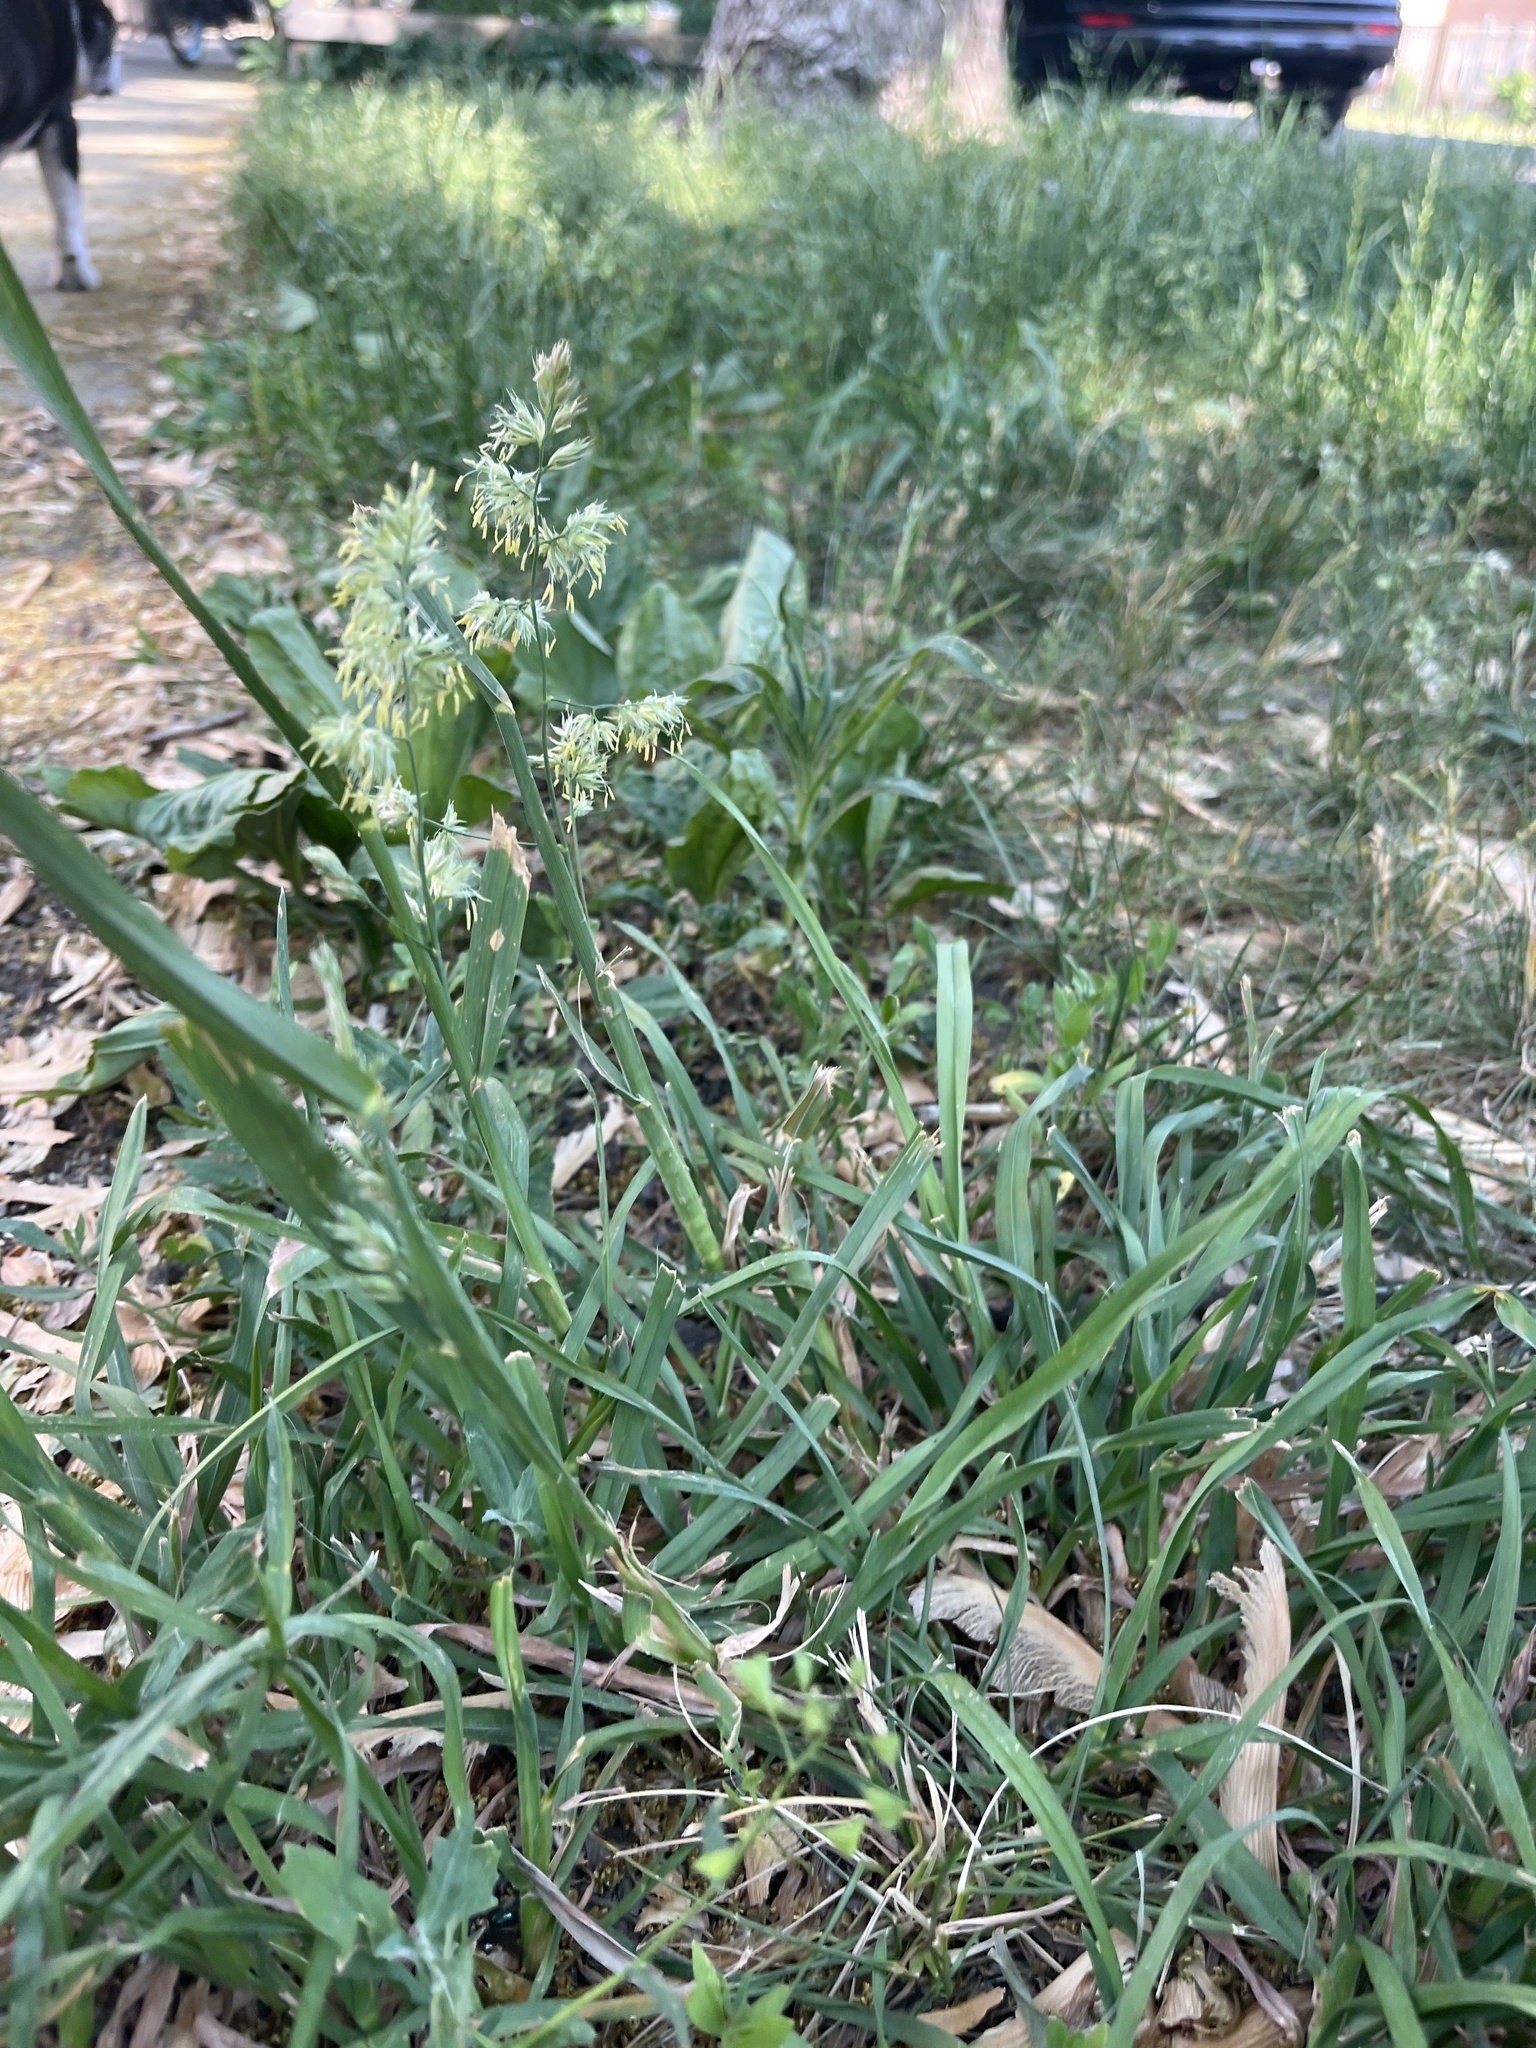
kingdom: Plantae
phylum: Tracheophyta
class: Liliopsida
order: Poales
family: Poaceae
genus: Dactylis
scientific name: Dactylis glomerata
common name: Orchardgrass
